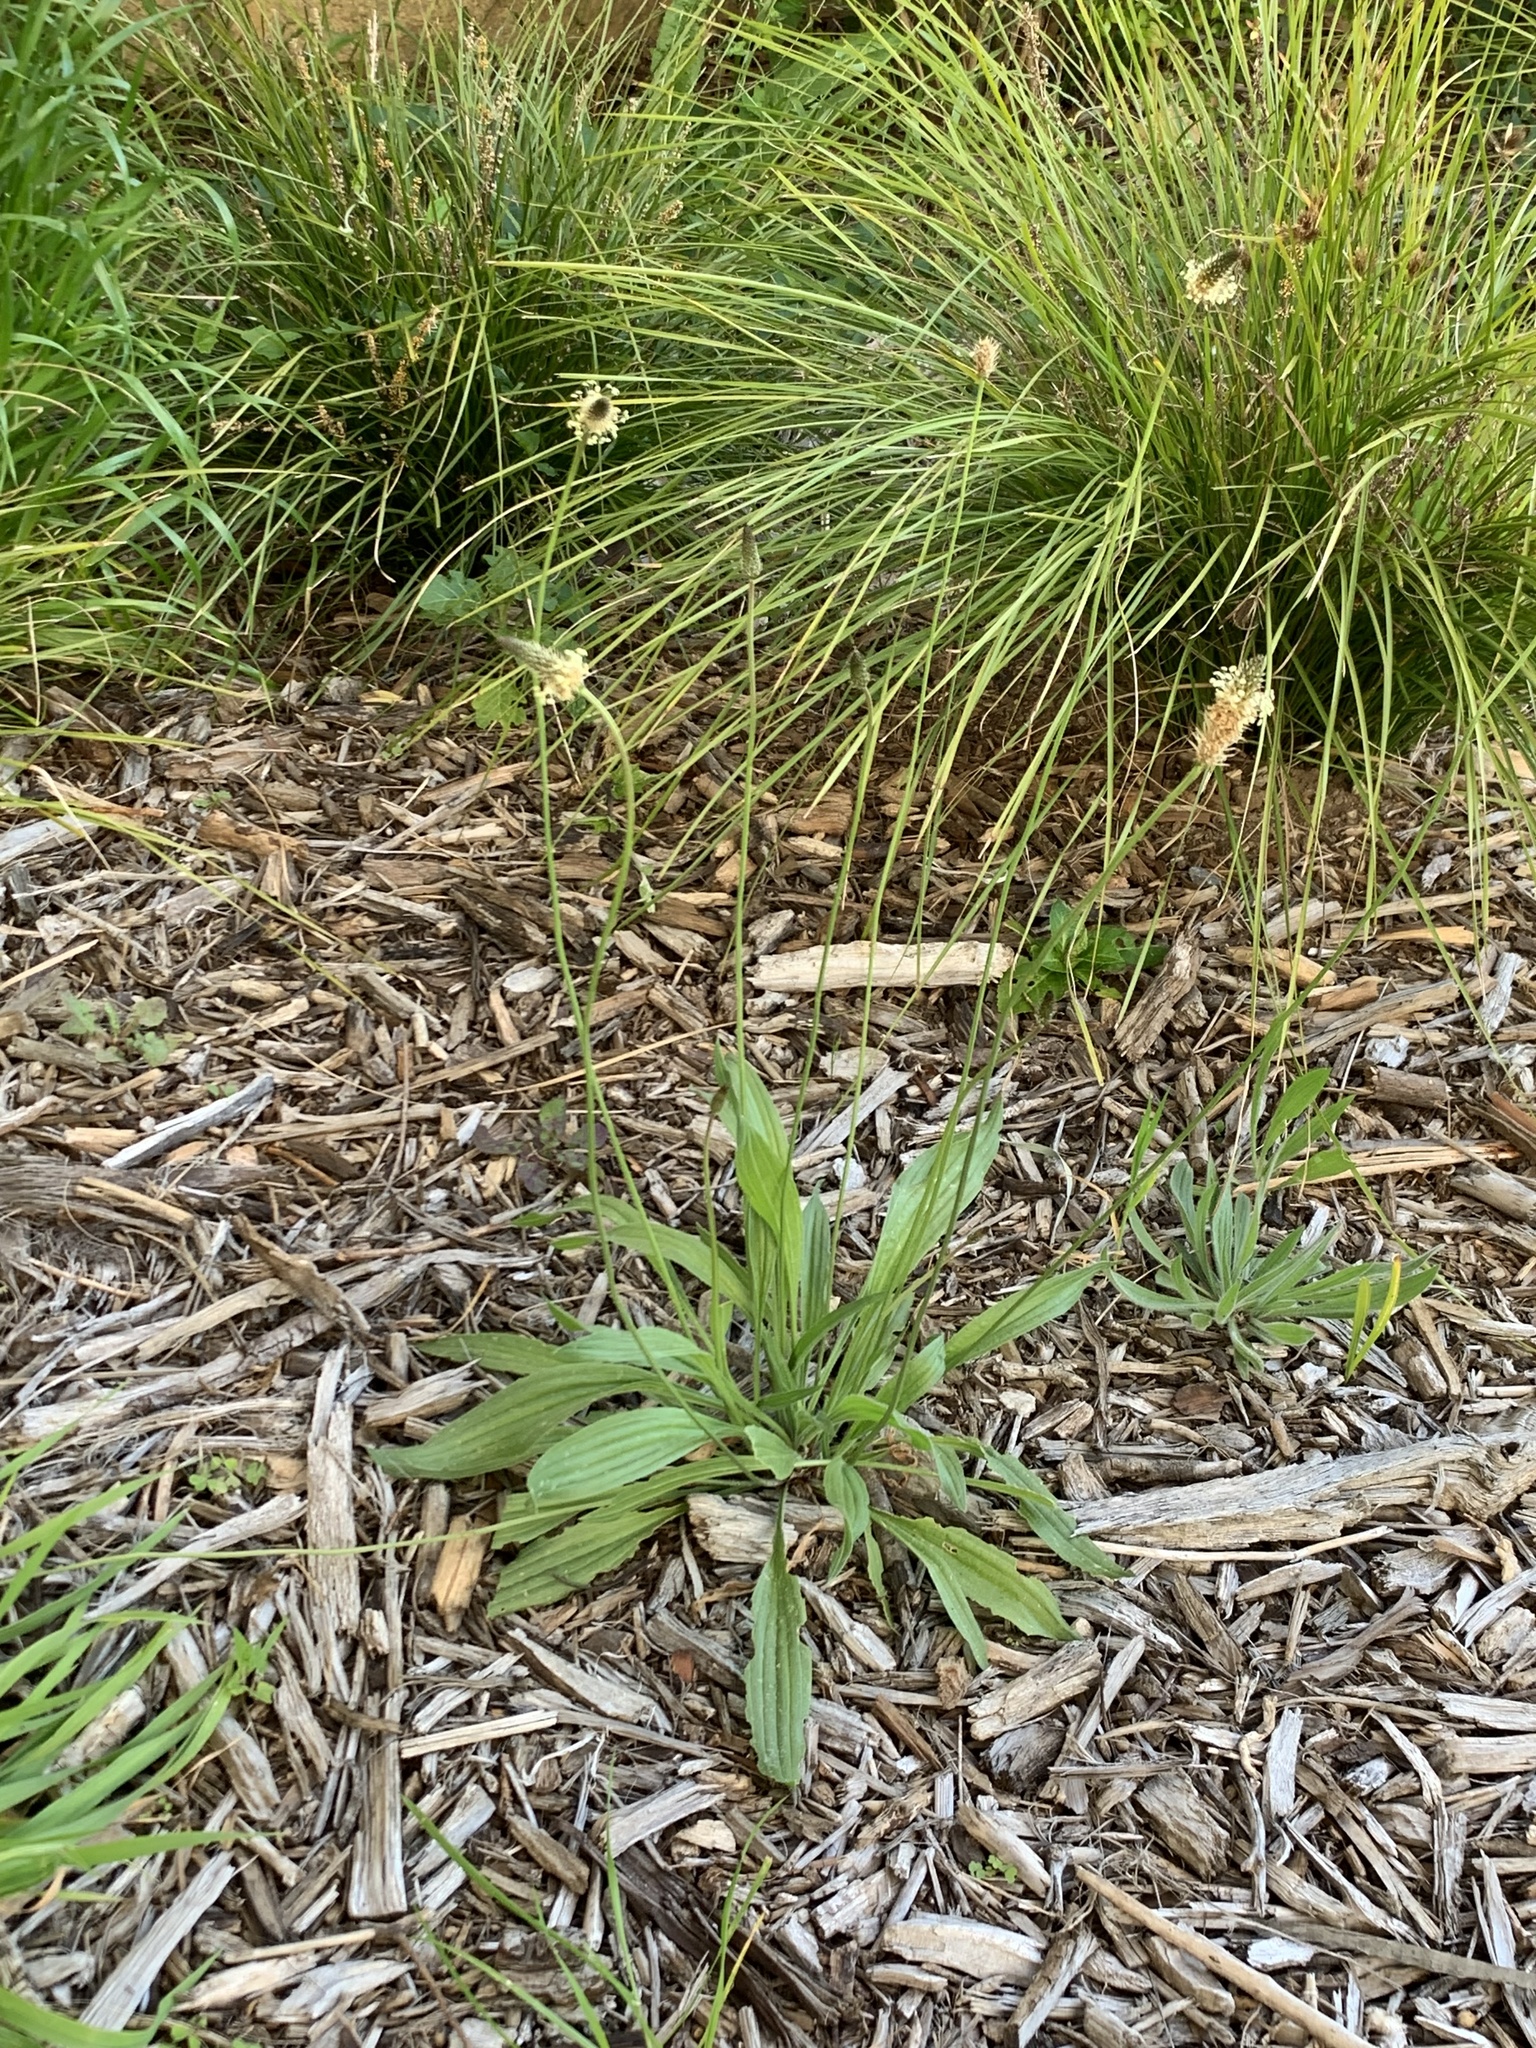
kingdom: Plantae
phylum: Tracheophyta
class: Magnoliopsida
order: Lamiales
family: Plantaginaceae
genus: Plantago
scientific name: Plantago lanceolata
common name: Ribwort plantain
